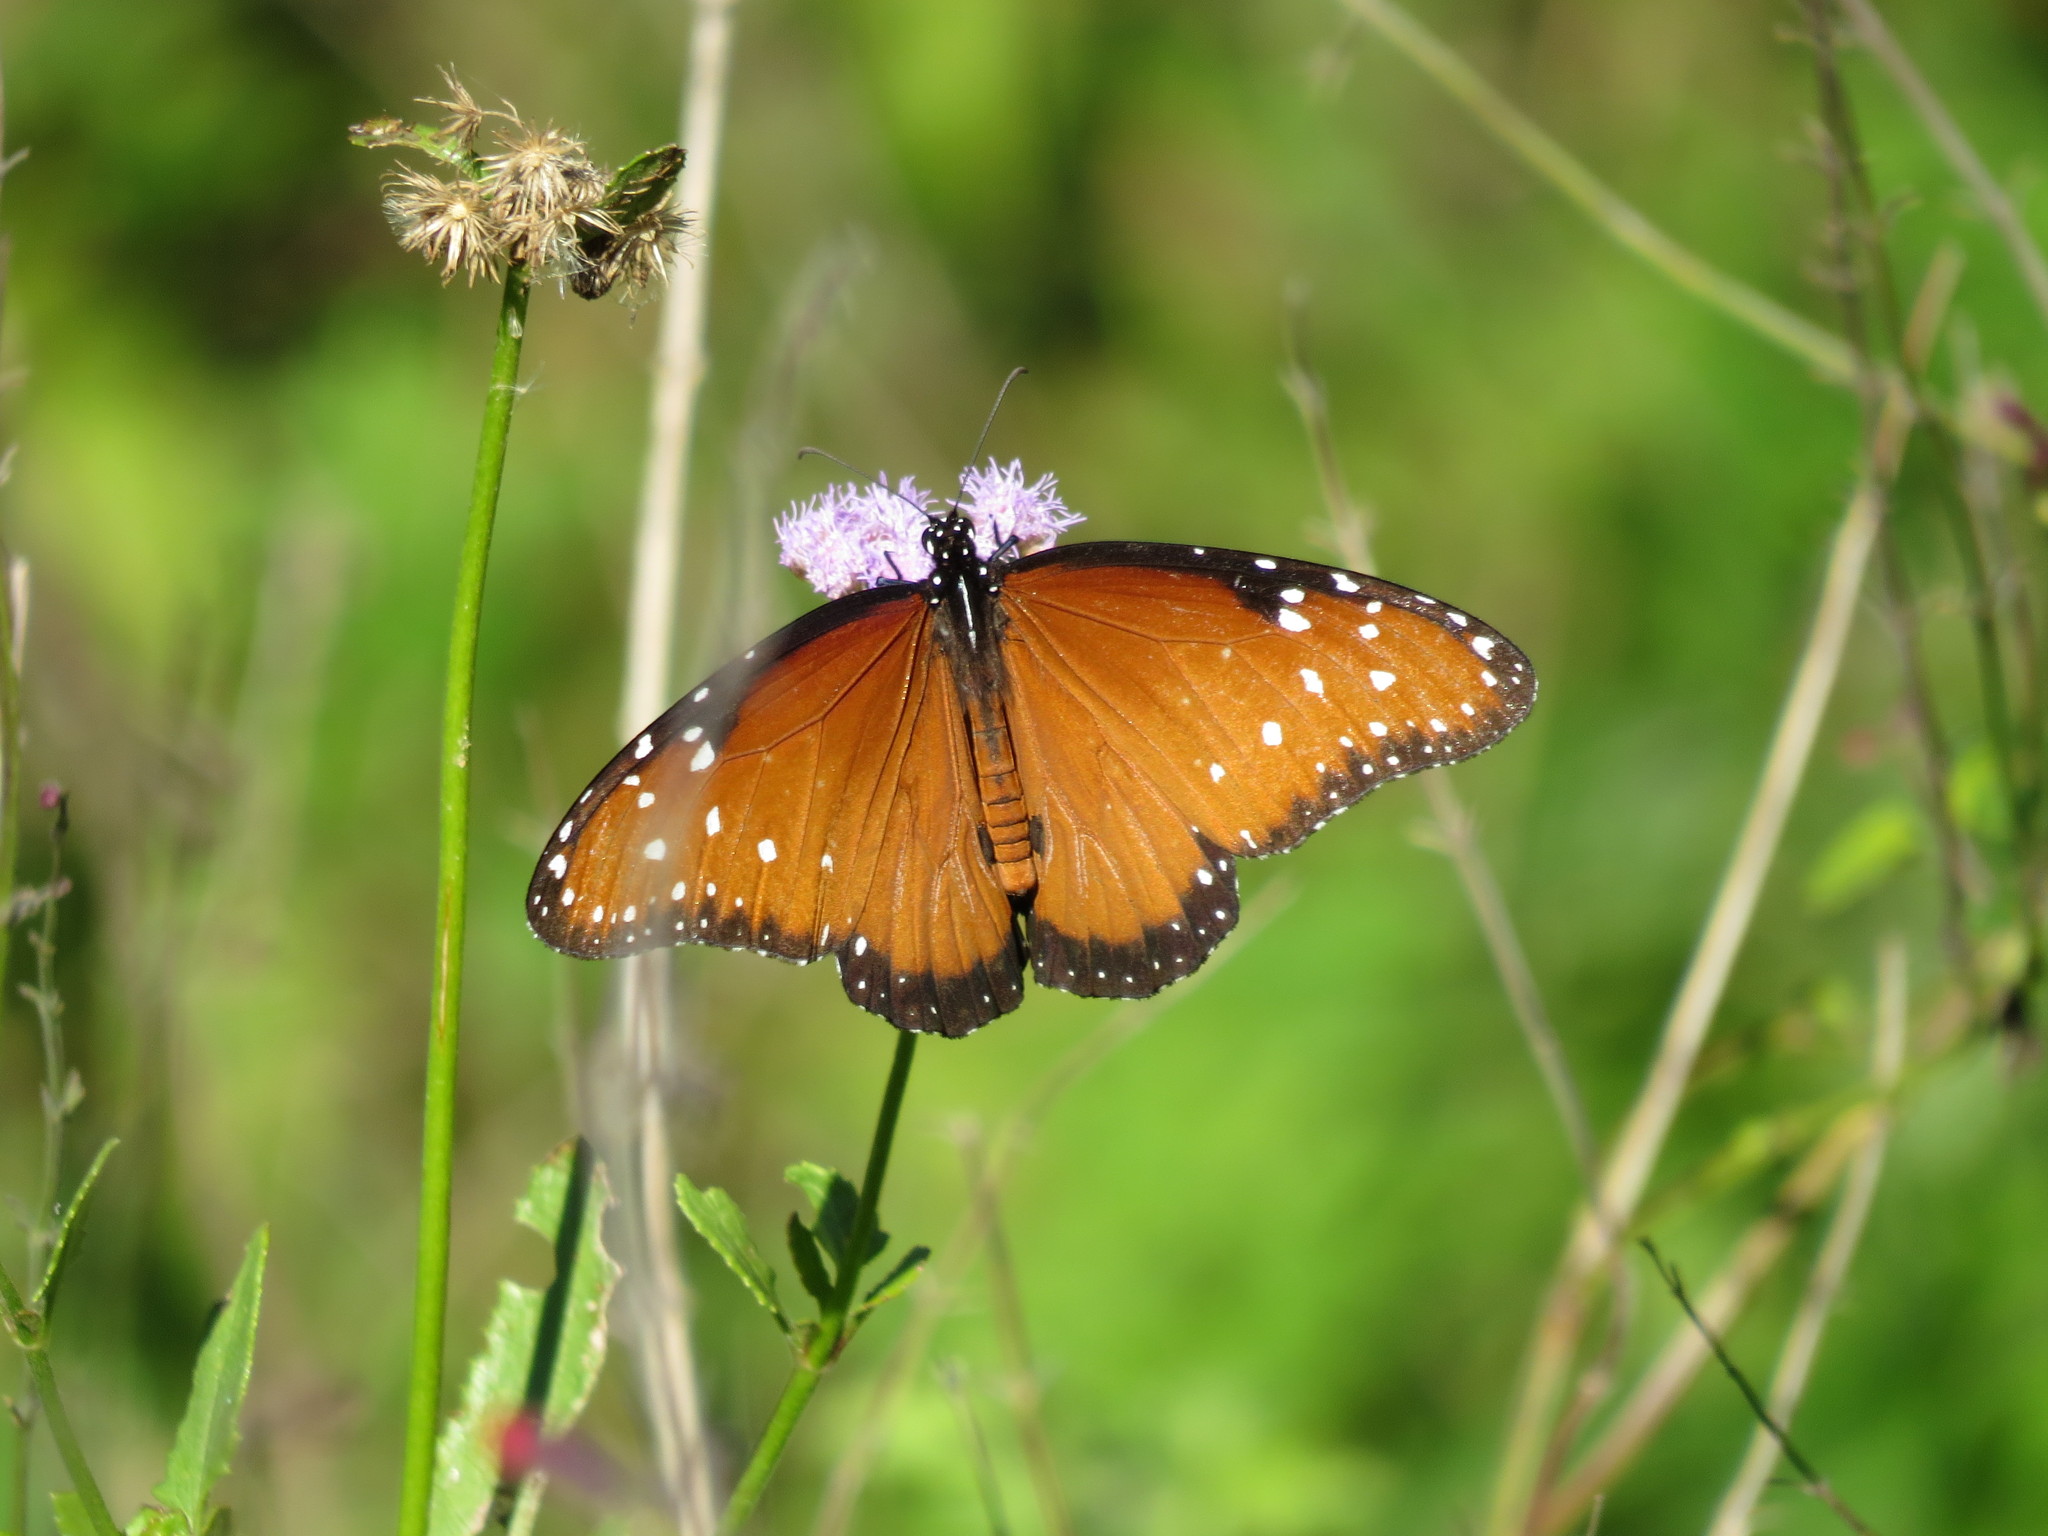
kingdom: Animalia
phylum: Arthropoda
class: Insecta
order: Lepidoptera
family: Nymphalidae
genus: Danaus
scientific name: Danaus gilippus
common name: Queen
